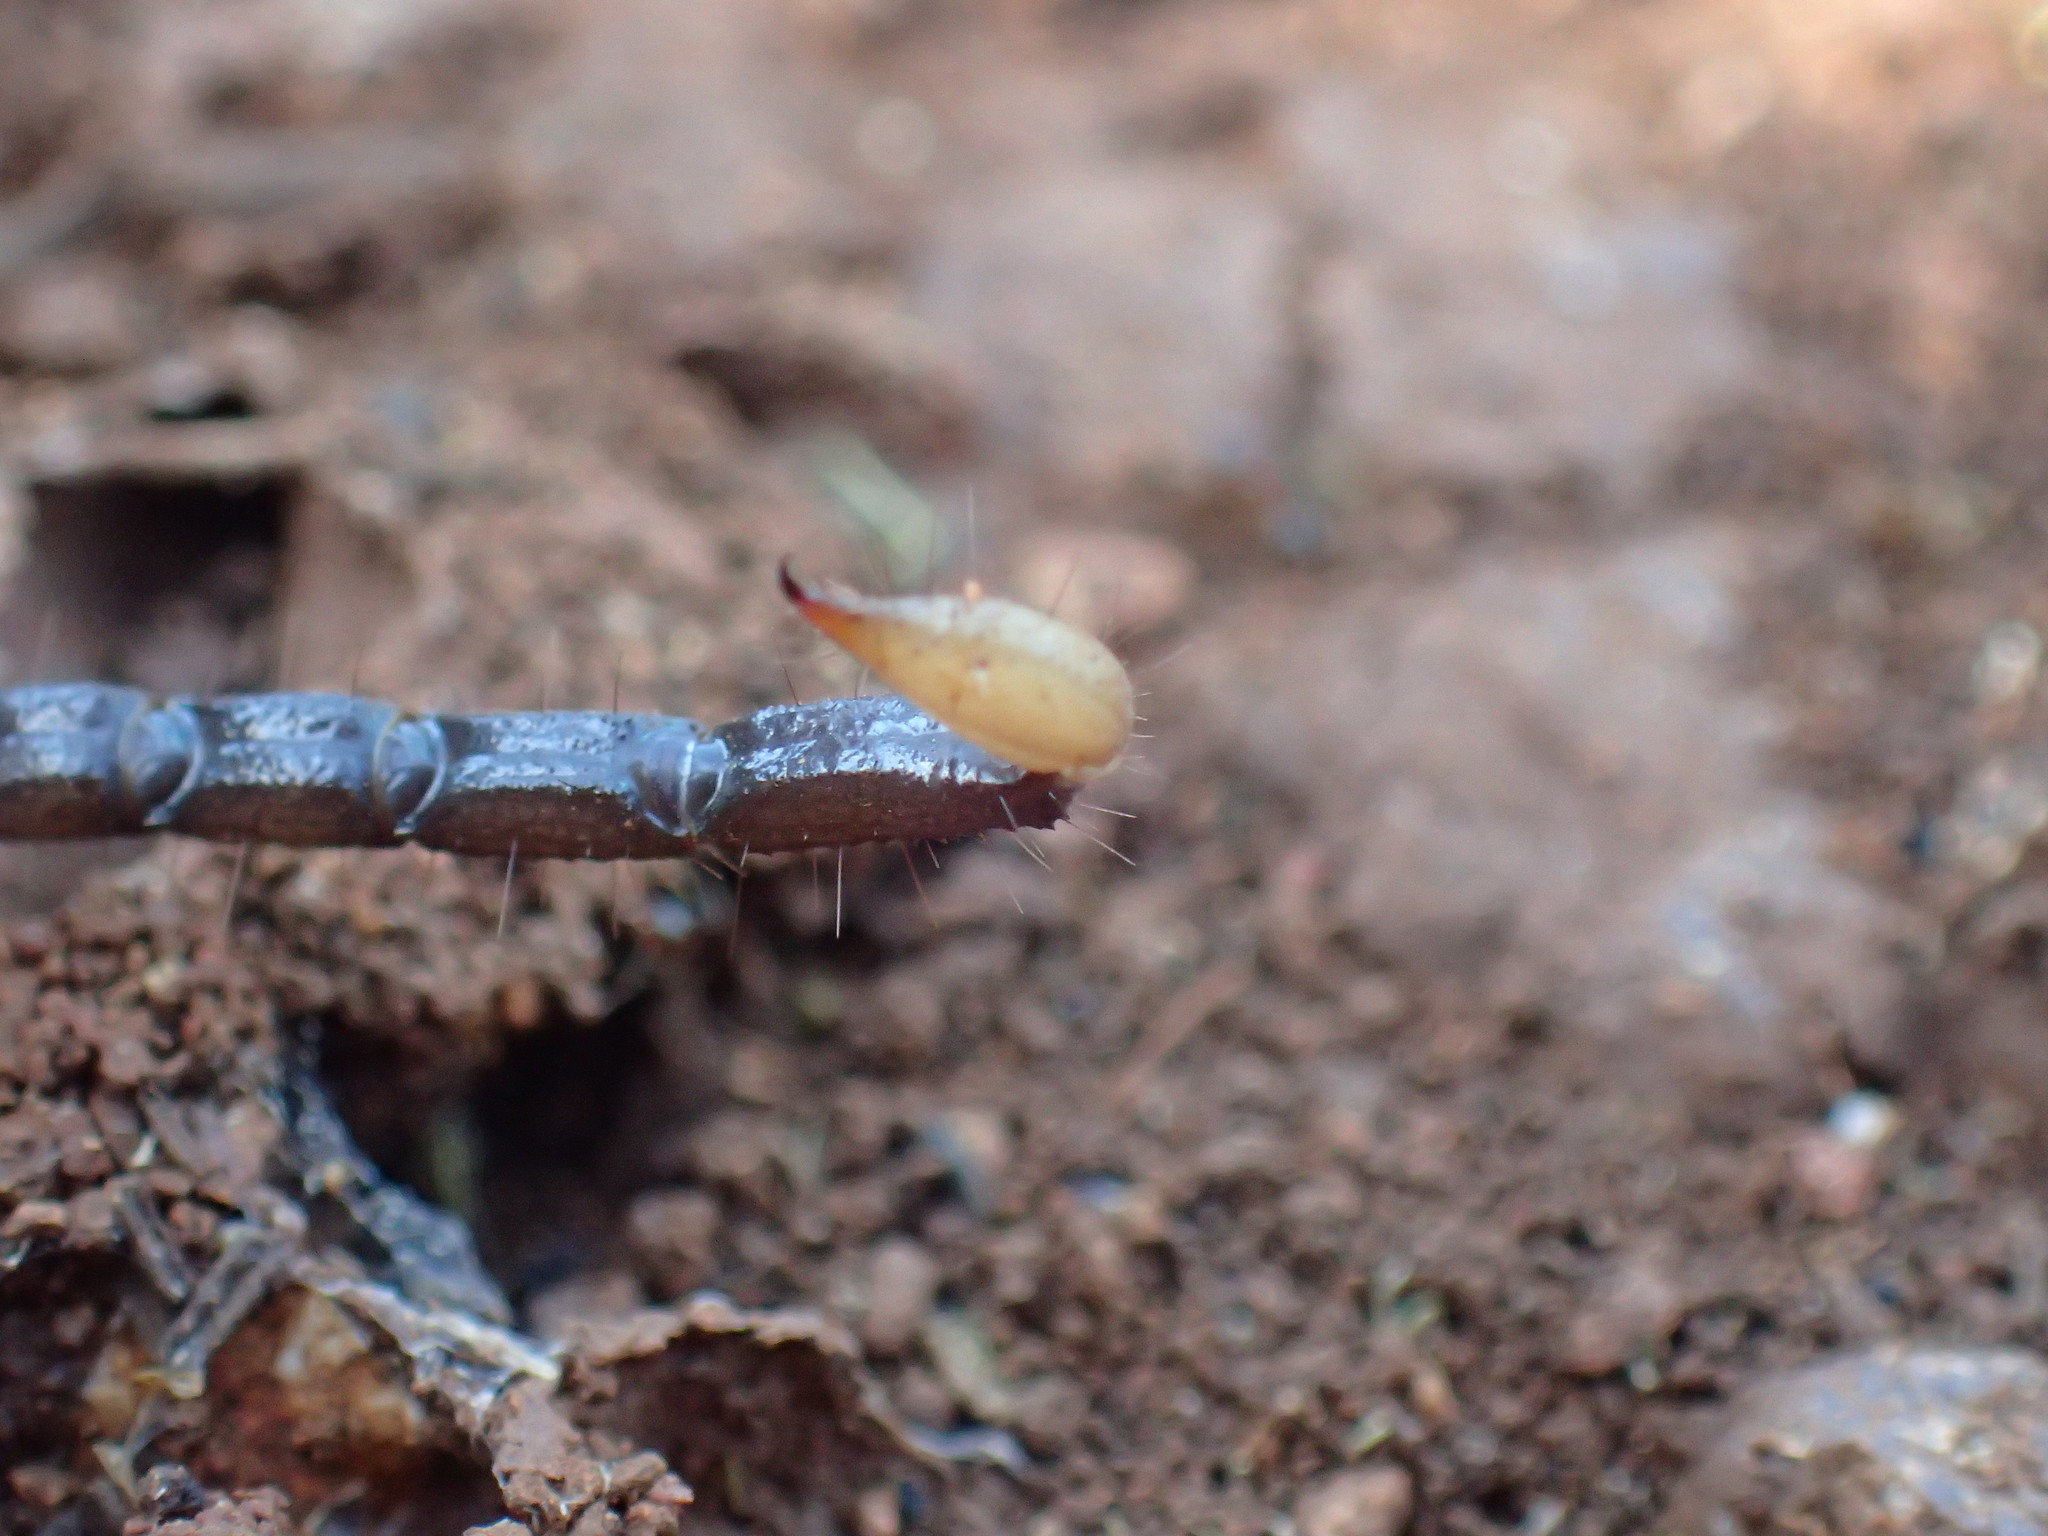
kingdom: Animalia
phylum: Arthropoda
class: Arachnida
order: Scorpiones
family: Hormuridae
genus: Opisthacanthus
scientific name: Opisthacanthus validus
